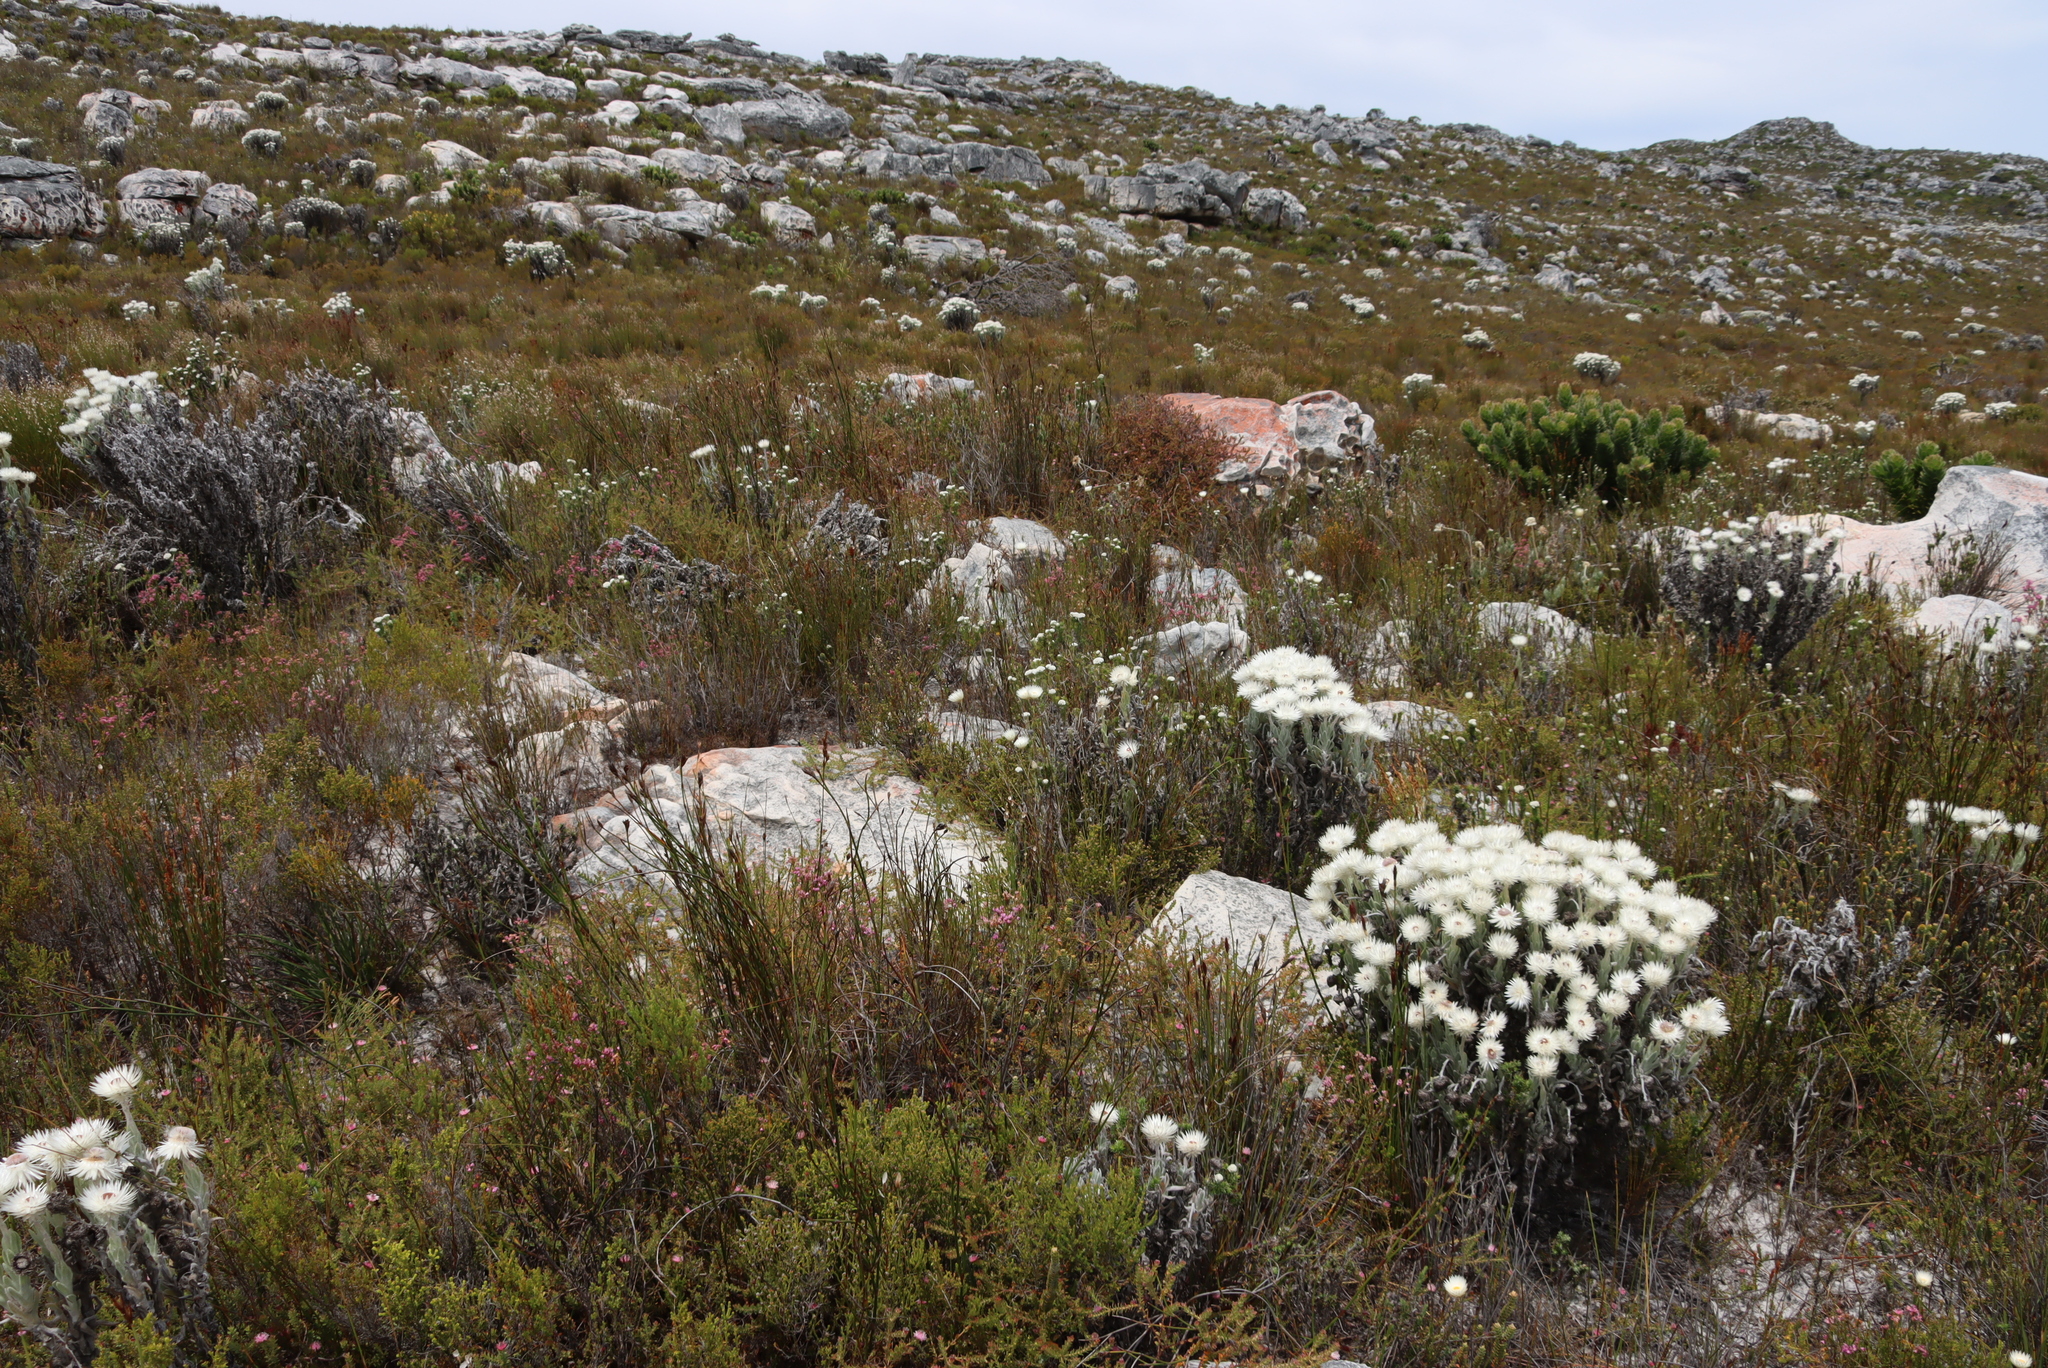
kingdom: Plantae
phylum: Tracheophyta
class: Magnoliopsida
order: Asterales
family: Asteraceae
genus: Edmondia
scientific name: Edmondia sesamoides
